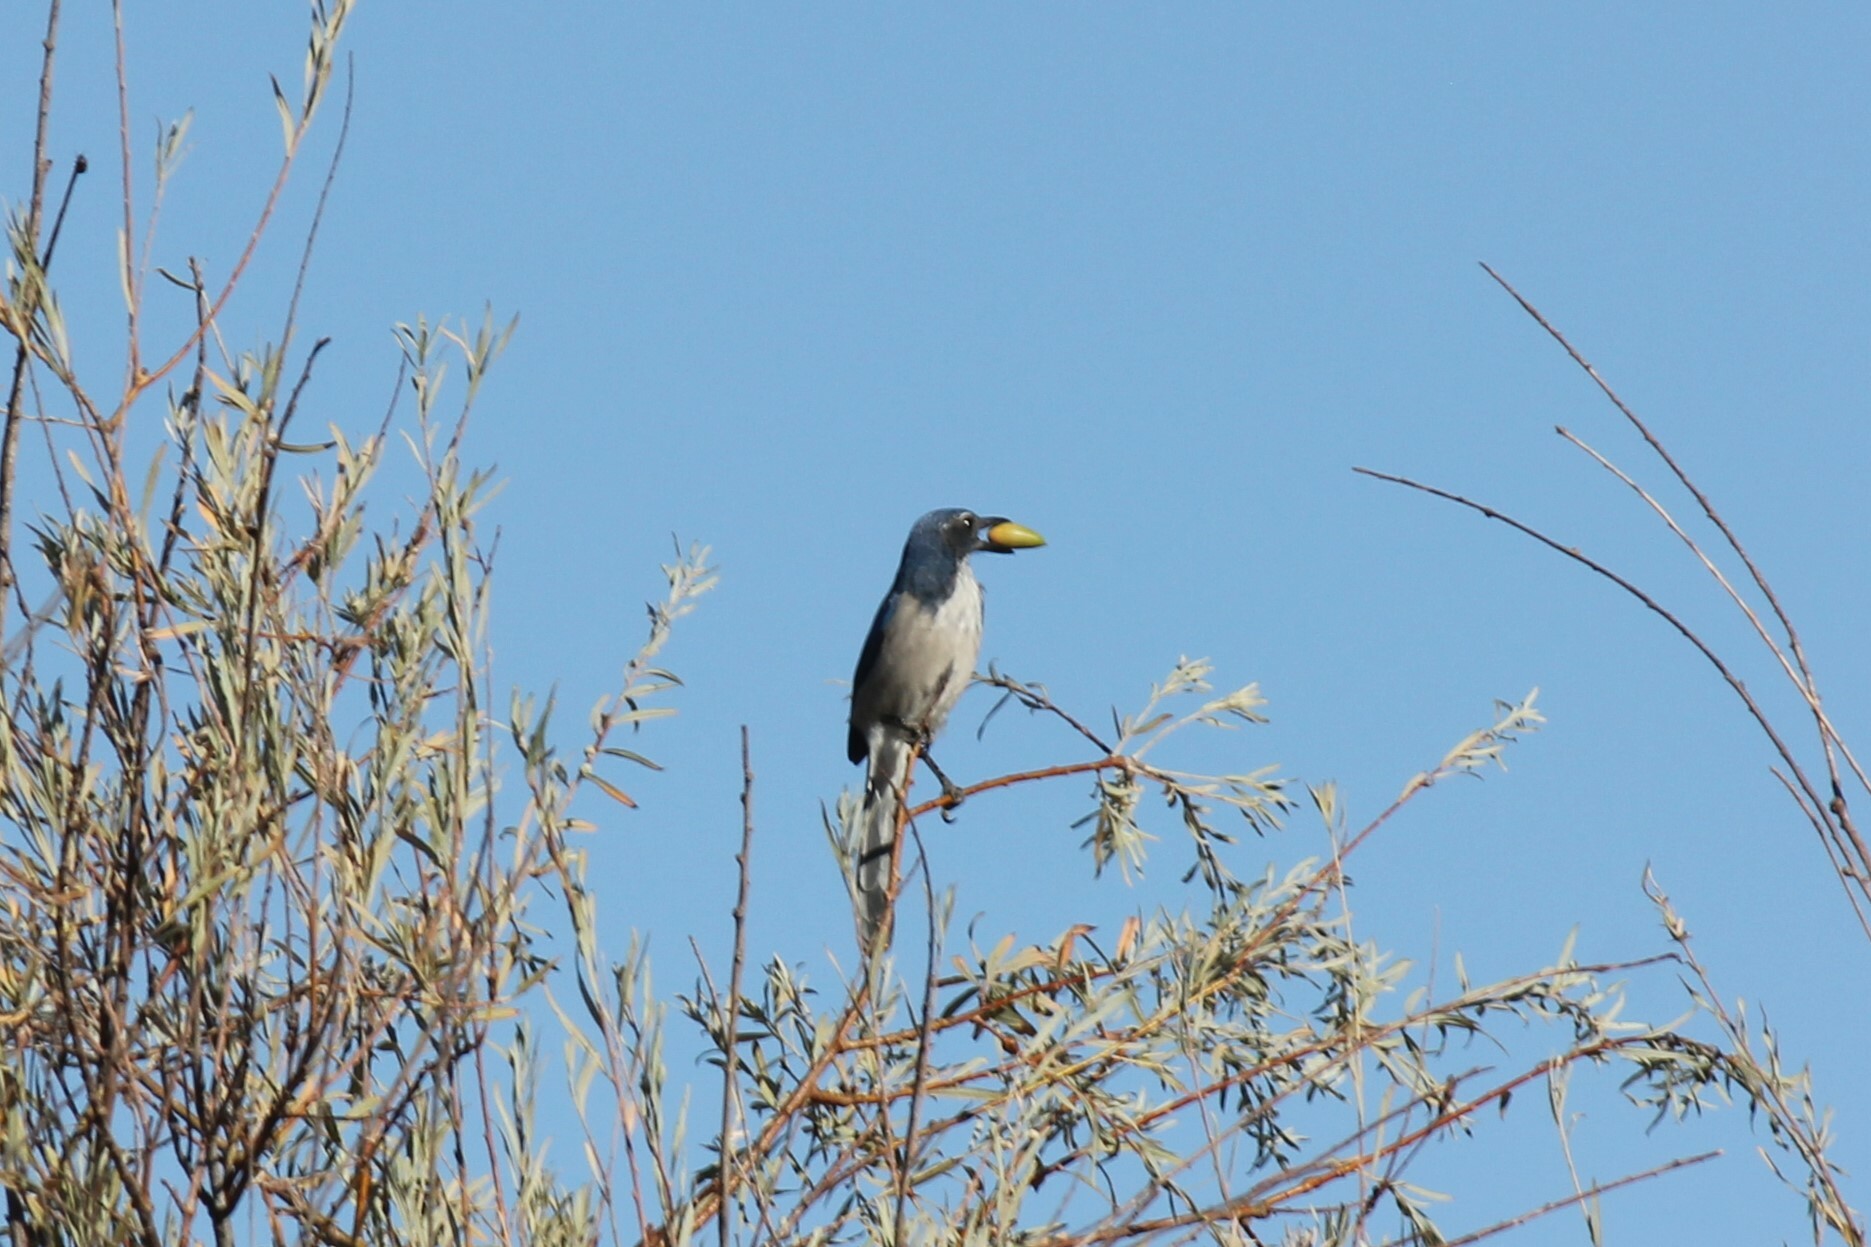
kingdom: Animalia
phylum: Chordata
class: Aves
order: Passeriformes
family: Corvidae
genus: Aphelocoma
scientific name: Aphelocoma californica
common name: California scrub-jay
